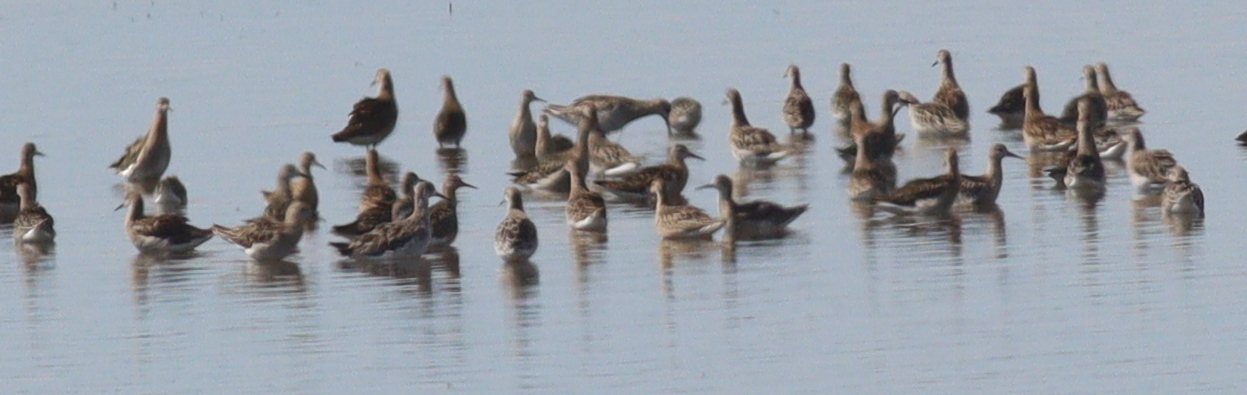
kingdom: Animalia
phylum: Chordata
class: Aves
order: Charadriiformes
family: Scolopacidae
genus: Calidris
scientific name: Calidris pugnax
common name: Ruff
